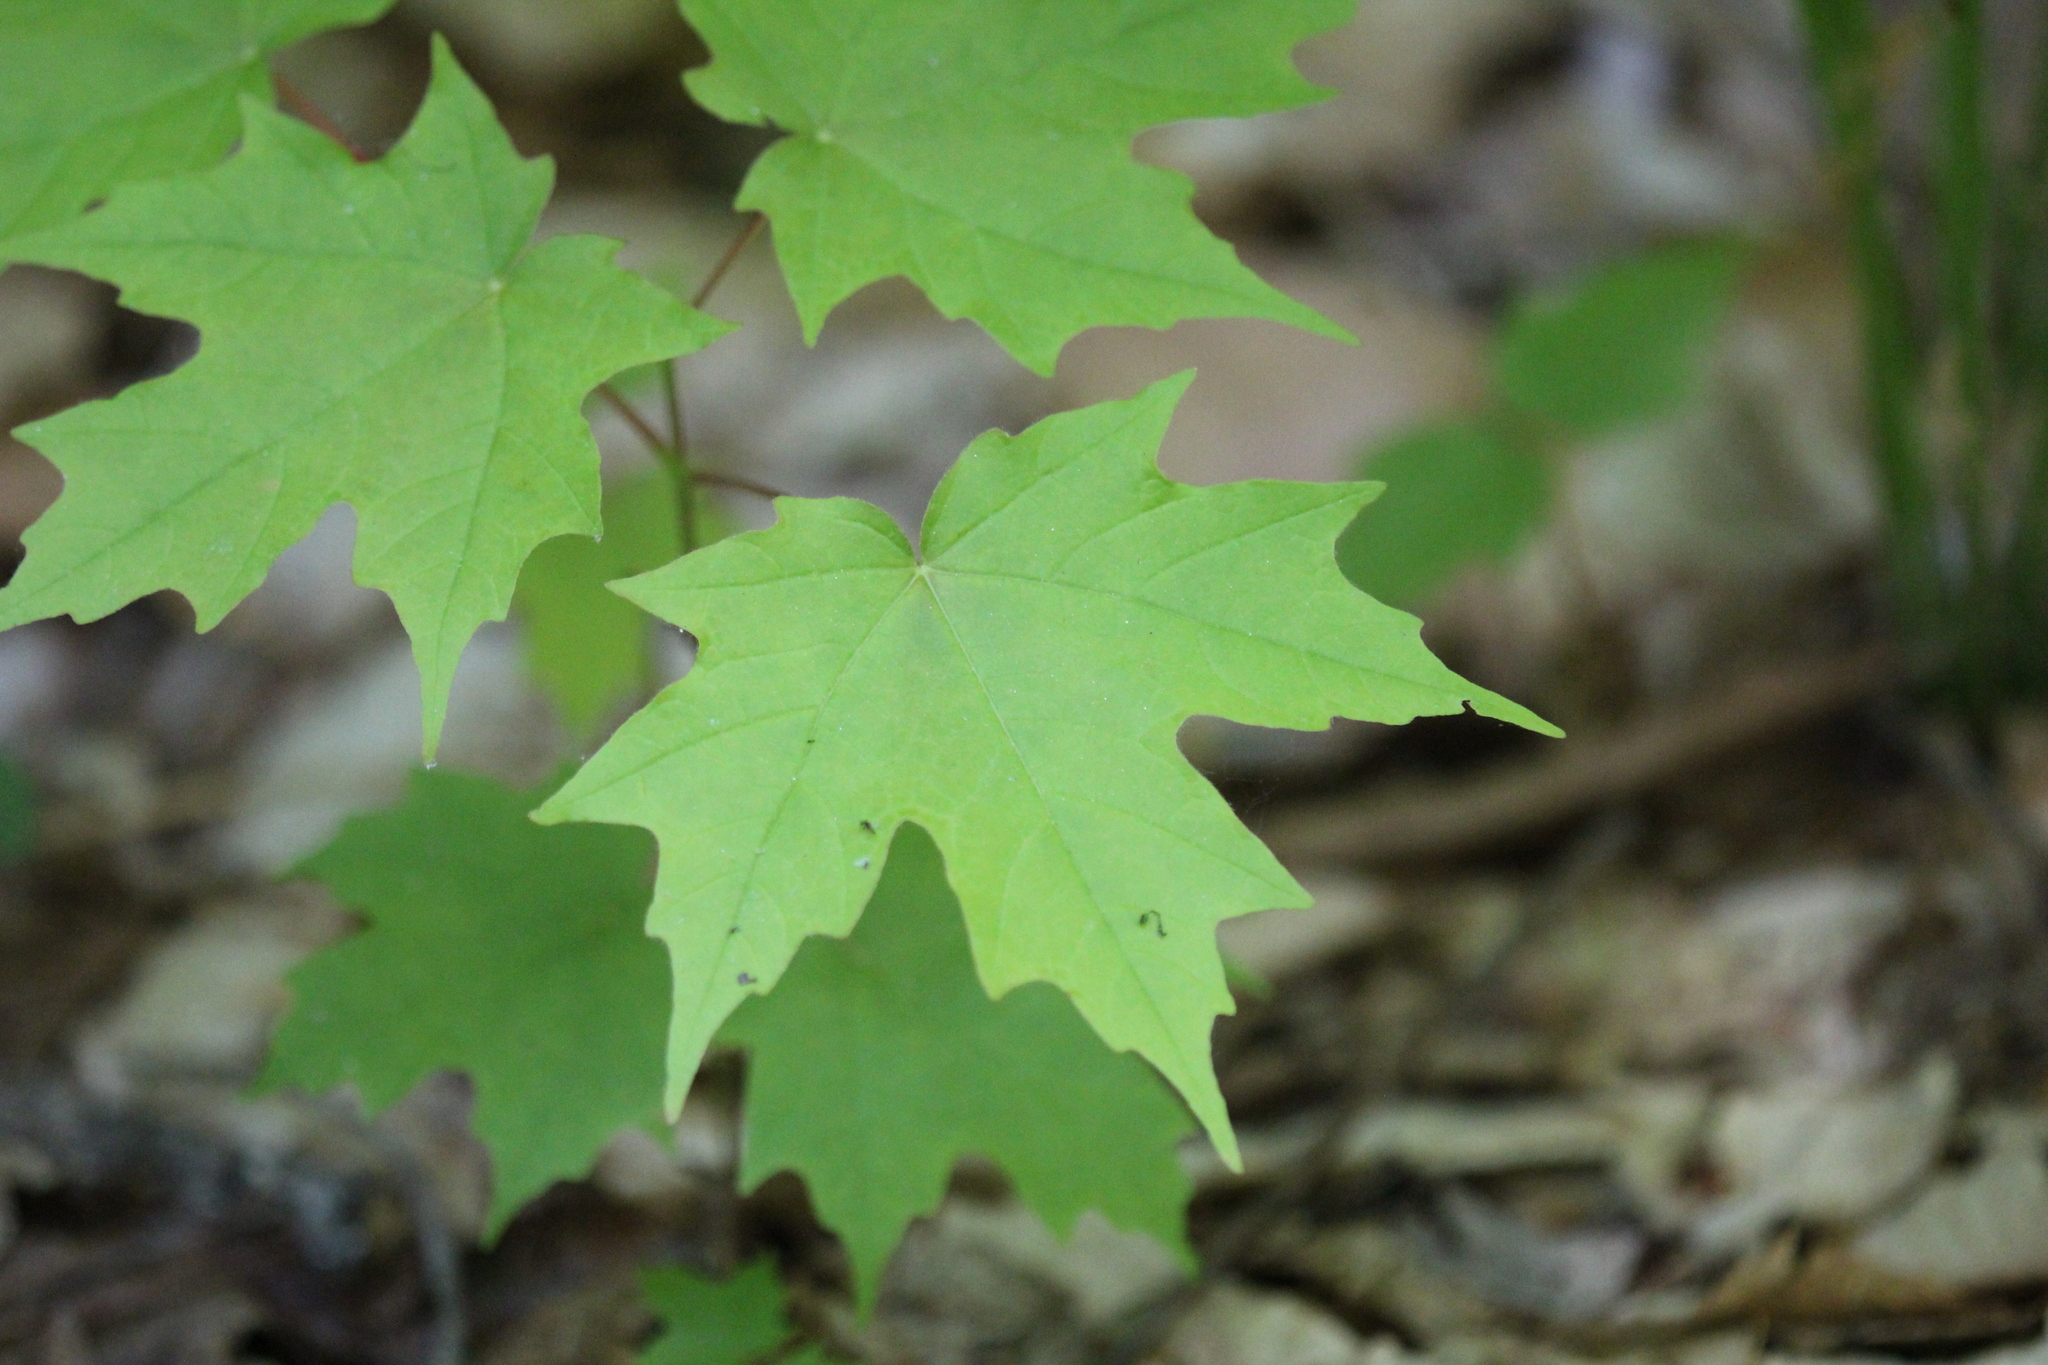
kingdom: Plantae
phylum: Tracheophyta
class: Magnoliopsida
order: Sapindales
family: Sapindaceae
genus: Acer
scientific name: Acer saccharum
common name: Sugar maple
